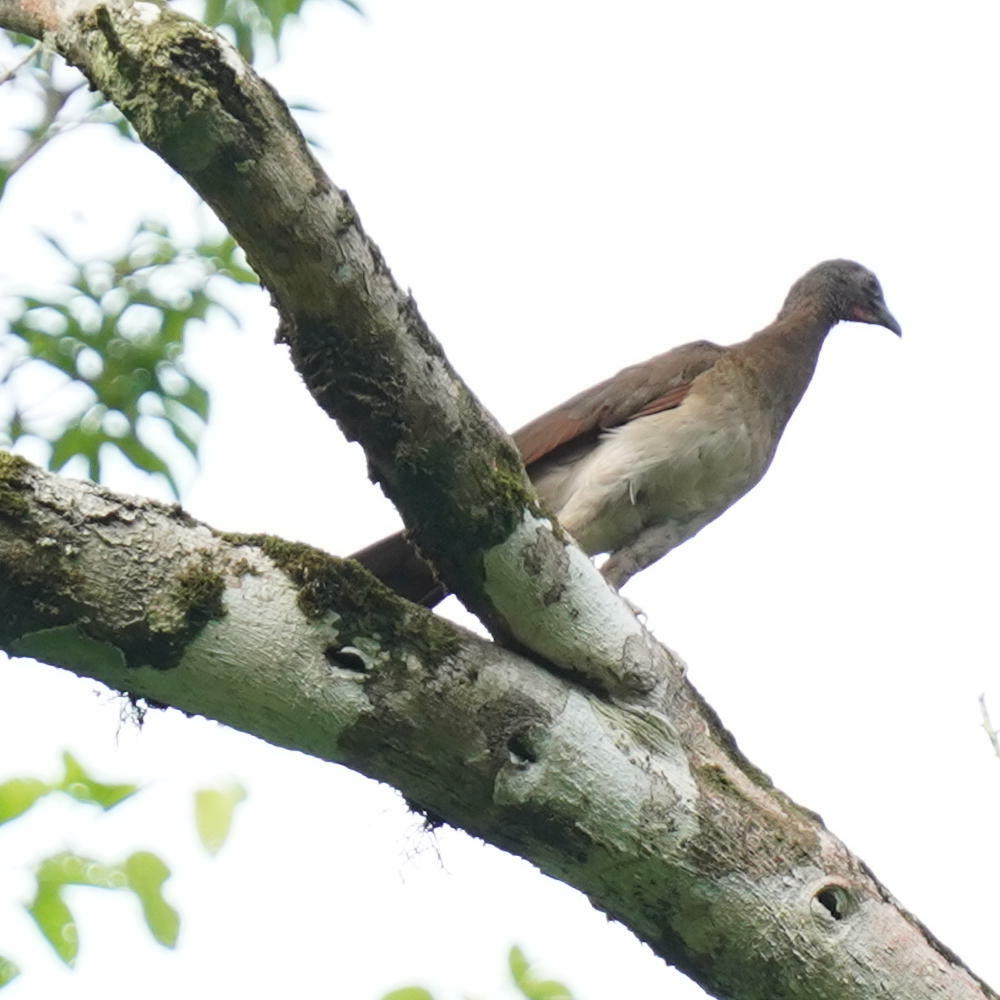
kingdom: Animalia
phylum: Chordata
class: Aves
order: Galliformes
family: Cracidae
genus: Ortalis
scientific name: Ortalis cinereiceps
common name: Grey-headed chachalaca
